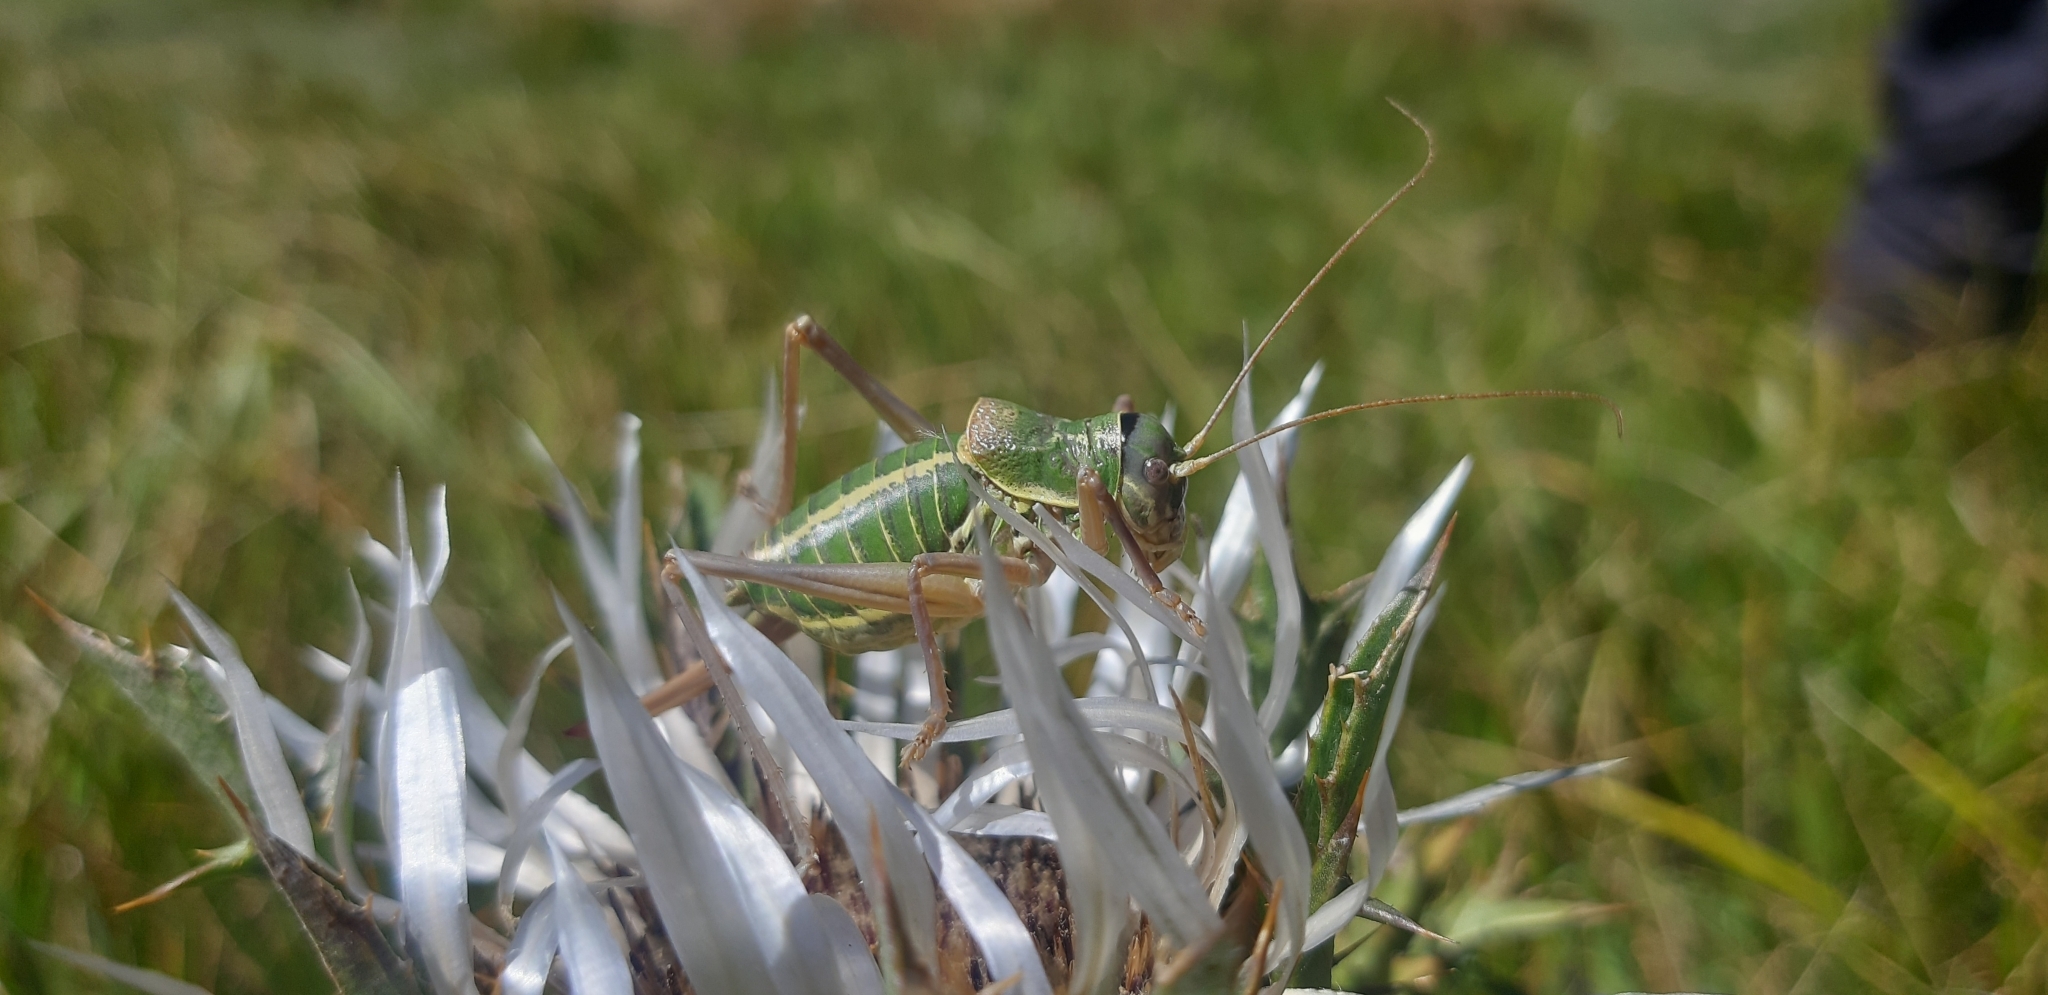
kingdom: Animalia
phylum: Arthropoda
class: Insecta
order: Orthoptera
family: Tettigoniidae
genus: Ephippiger
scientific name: Ephippiger ruffoi
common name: Pygmy saddle bush-cricket
